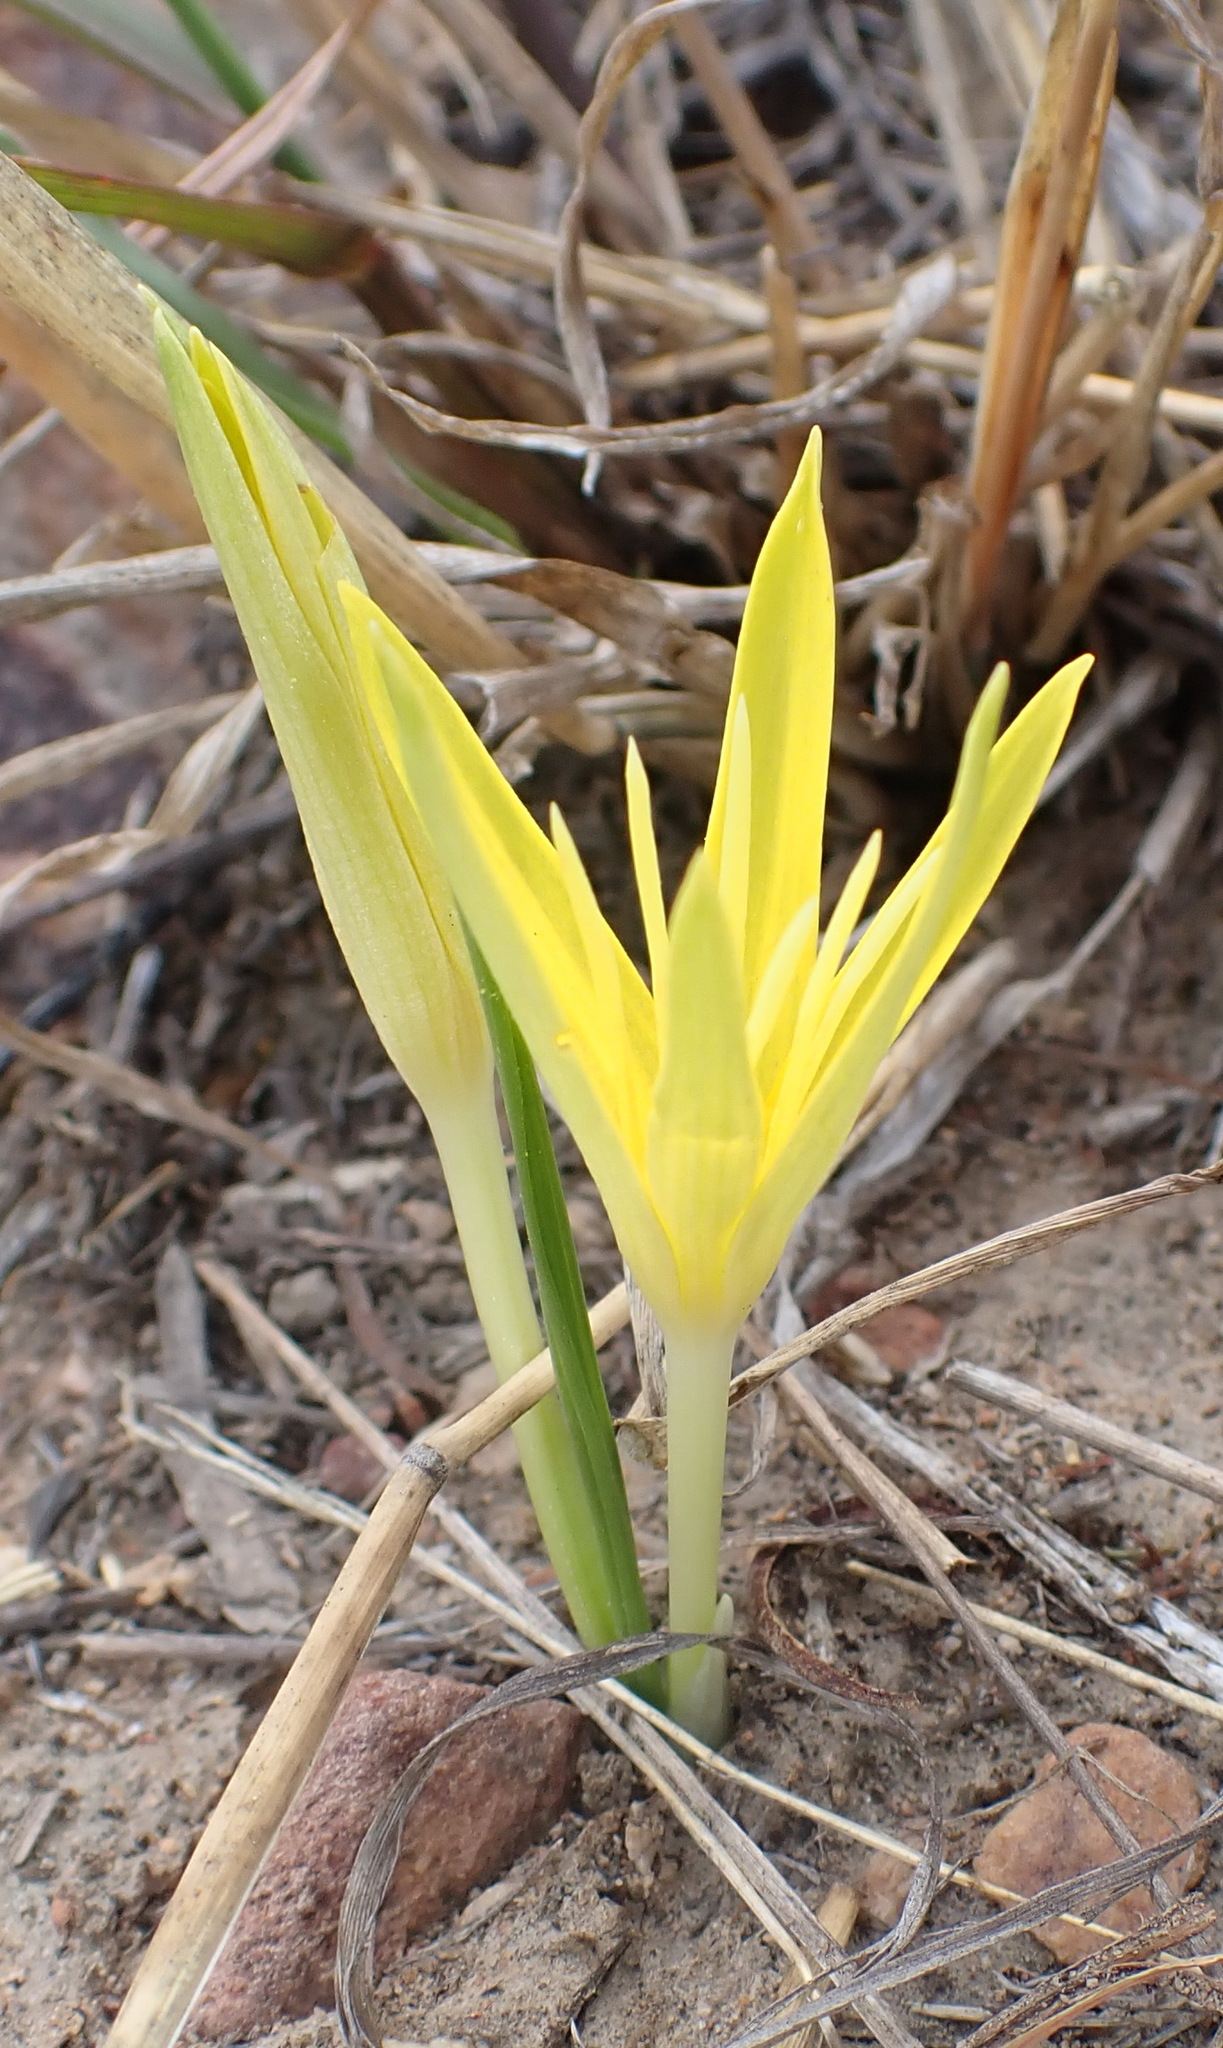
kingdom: Plantae
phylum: Tracheophyta
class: Liliopsida
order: Asparagales
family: Hypoxidaceae
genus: Empodium
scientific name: Empodium flexile
